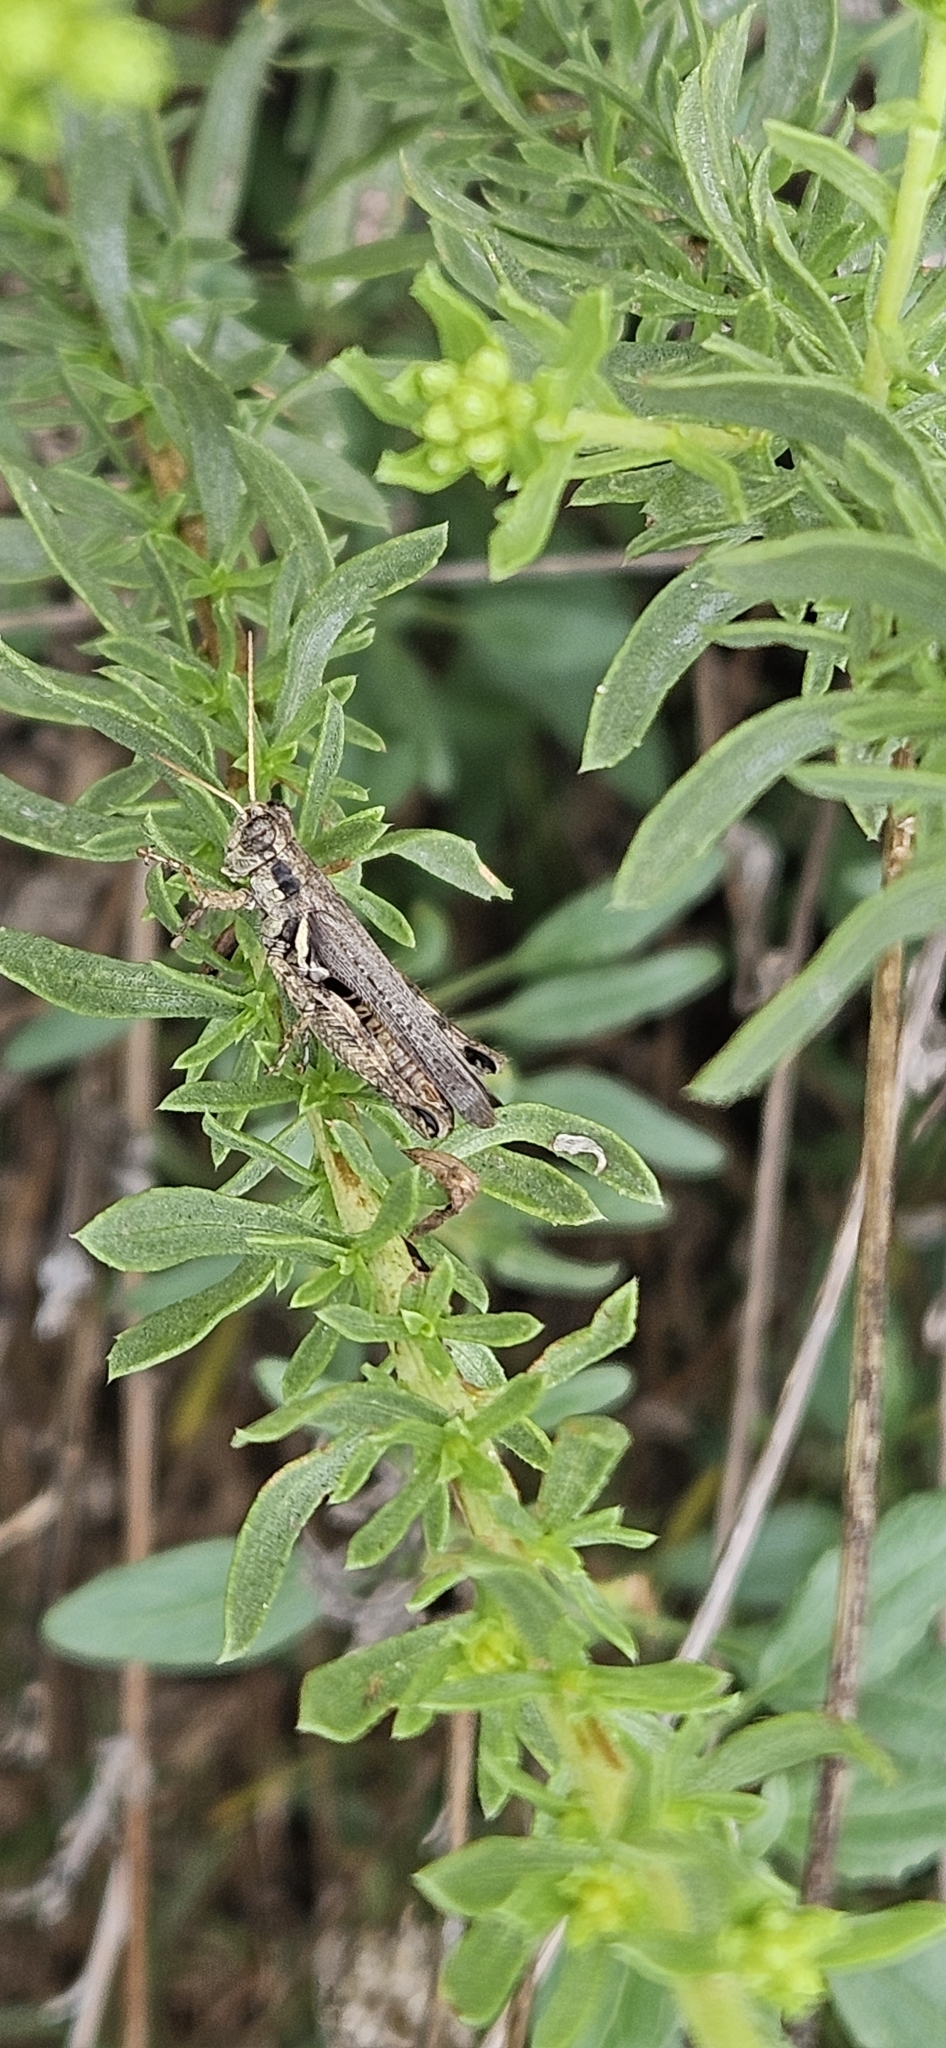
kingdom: Animalia
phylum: Arthropoda
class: Insecta
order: Orthoptera
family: Acrididae
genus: Melanoplus
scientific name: Melanoplus cinereus
